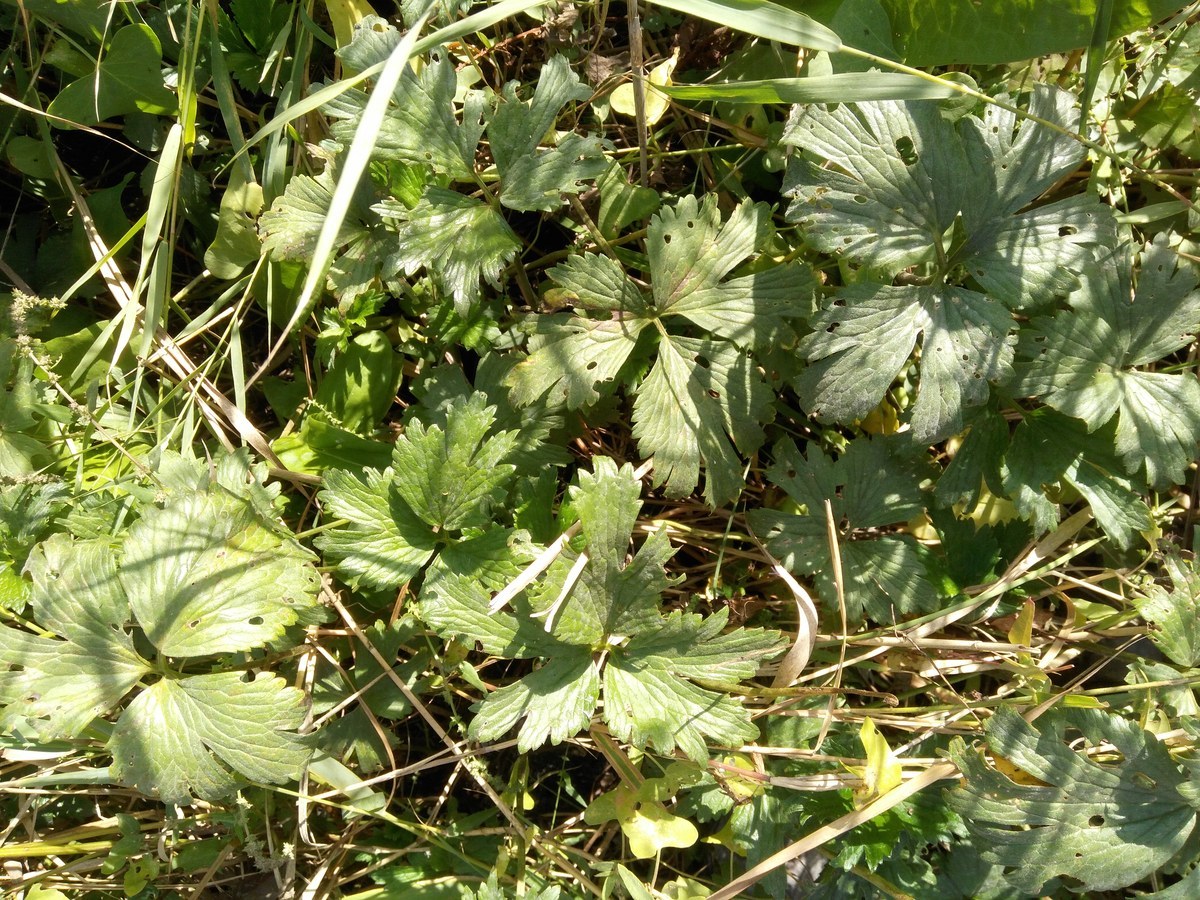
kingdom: Plantae
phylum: Tracheophyta
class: Magnoliopsida
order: Ranunculales
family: Ranunculaceae
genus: Ranunculus
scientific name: Ranunculus repens
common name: Creeping buttercup
